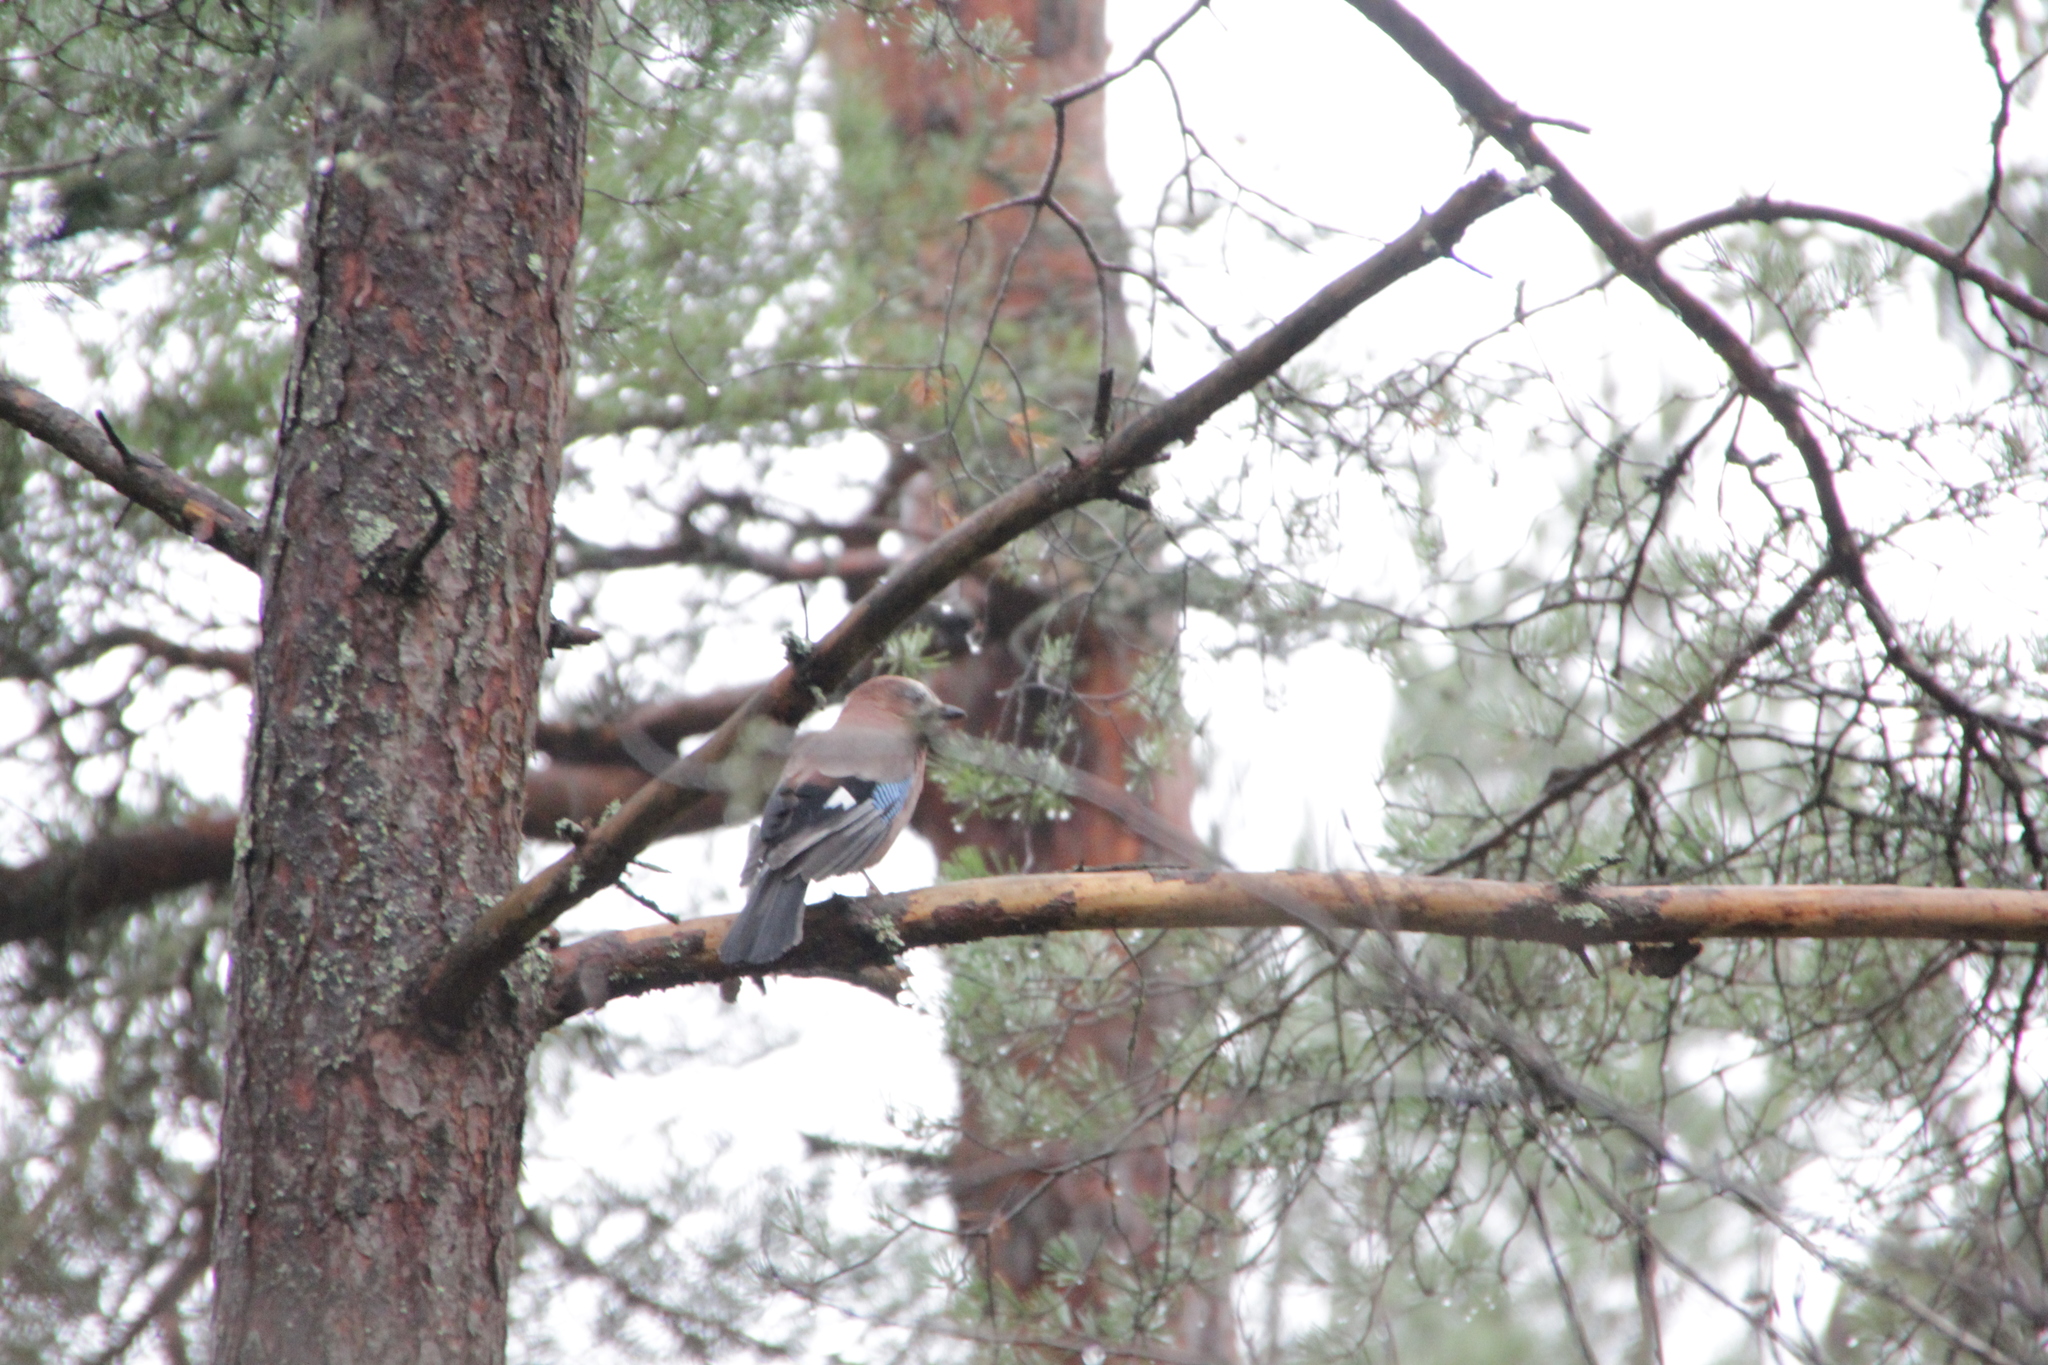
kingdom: Animalia
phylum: Chordata
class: Aves
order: Passeriformes
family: Corvidae
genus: Garrulus
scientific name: Garrulus glandarius
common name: Eurasian jay
